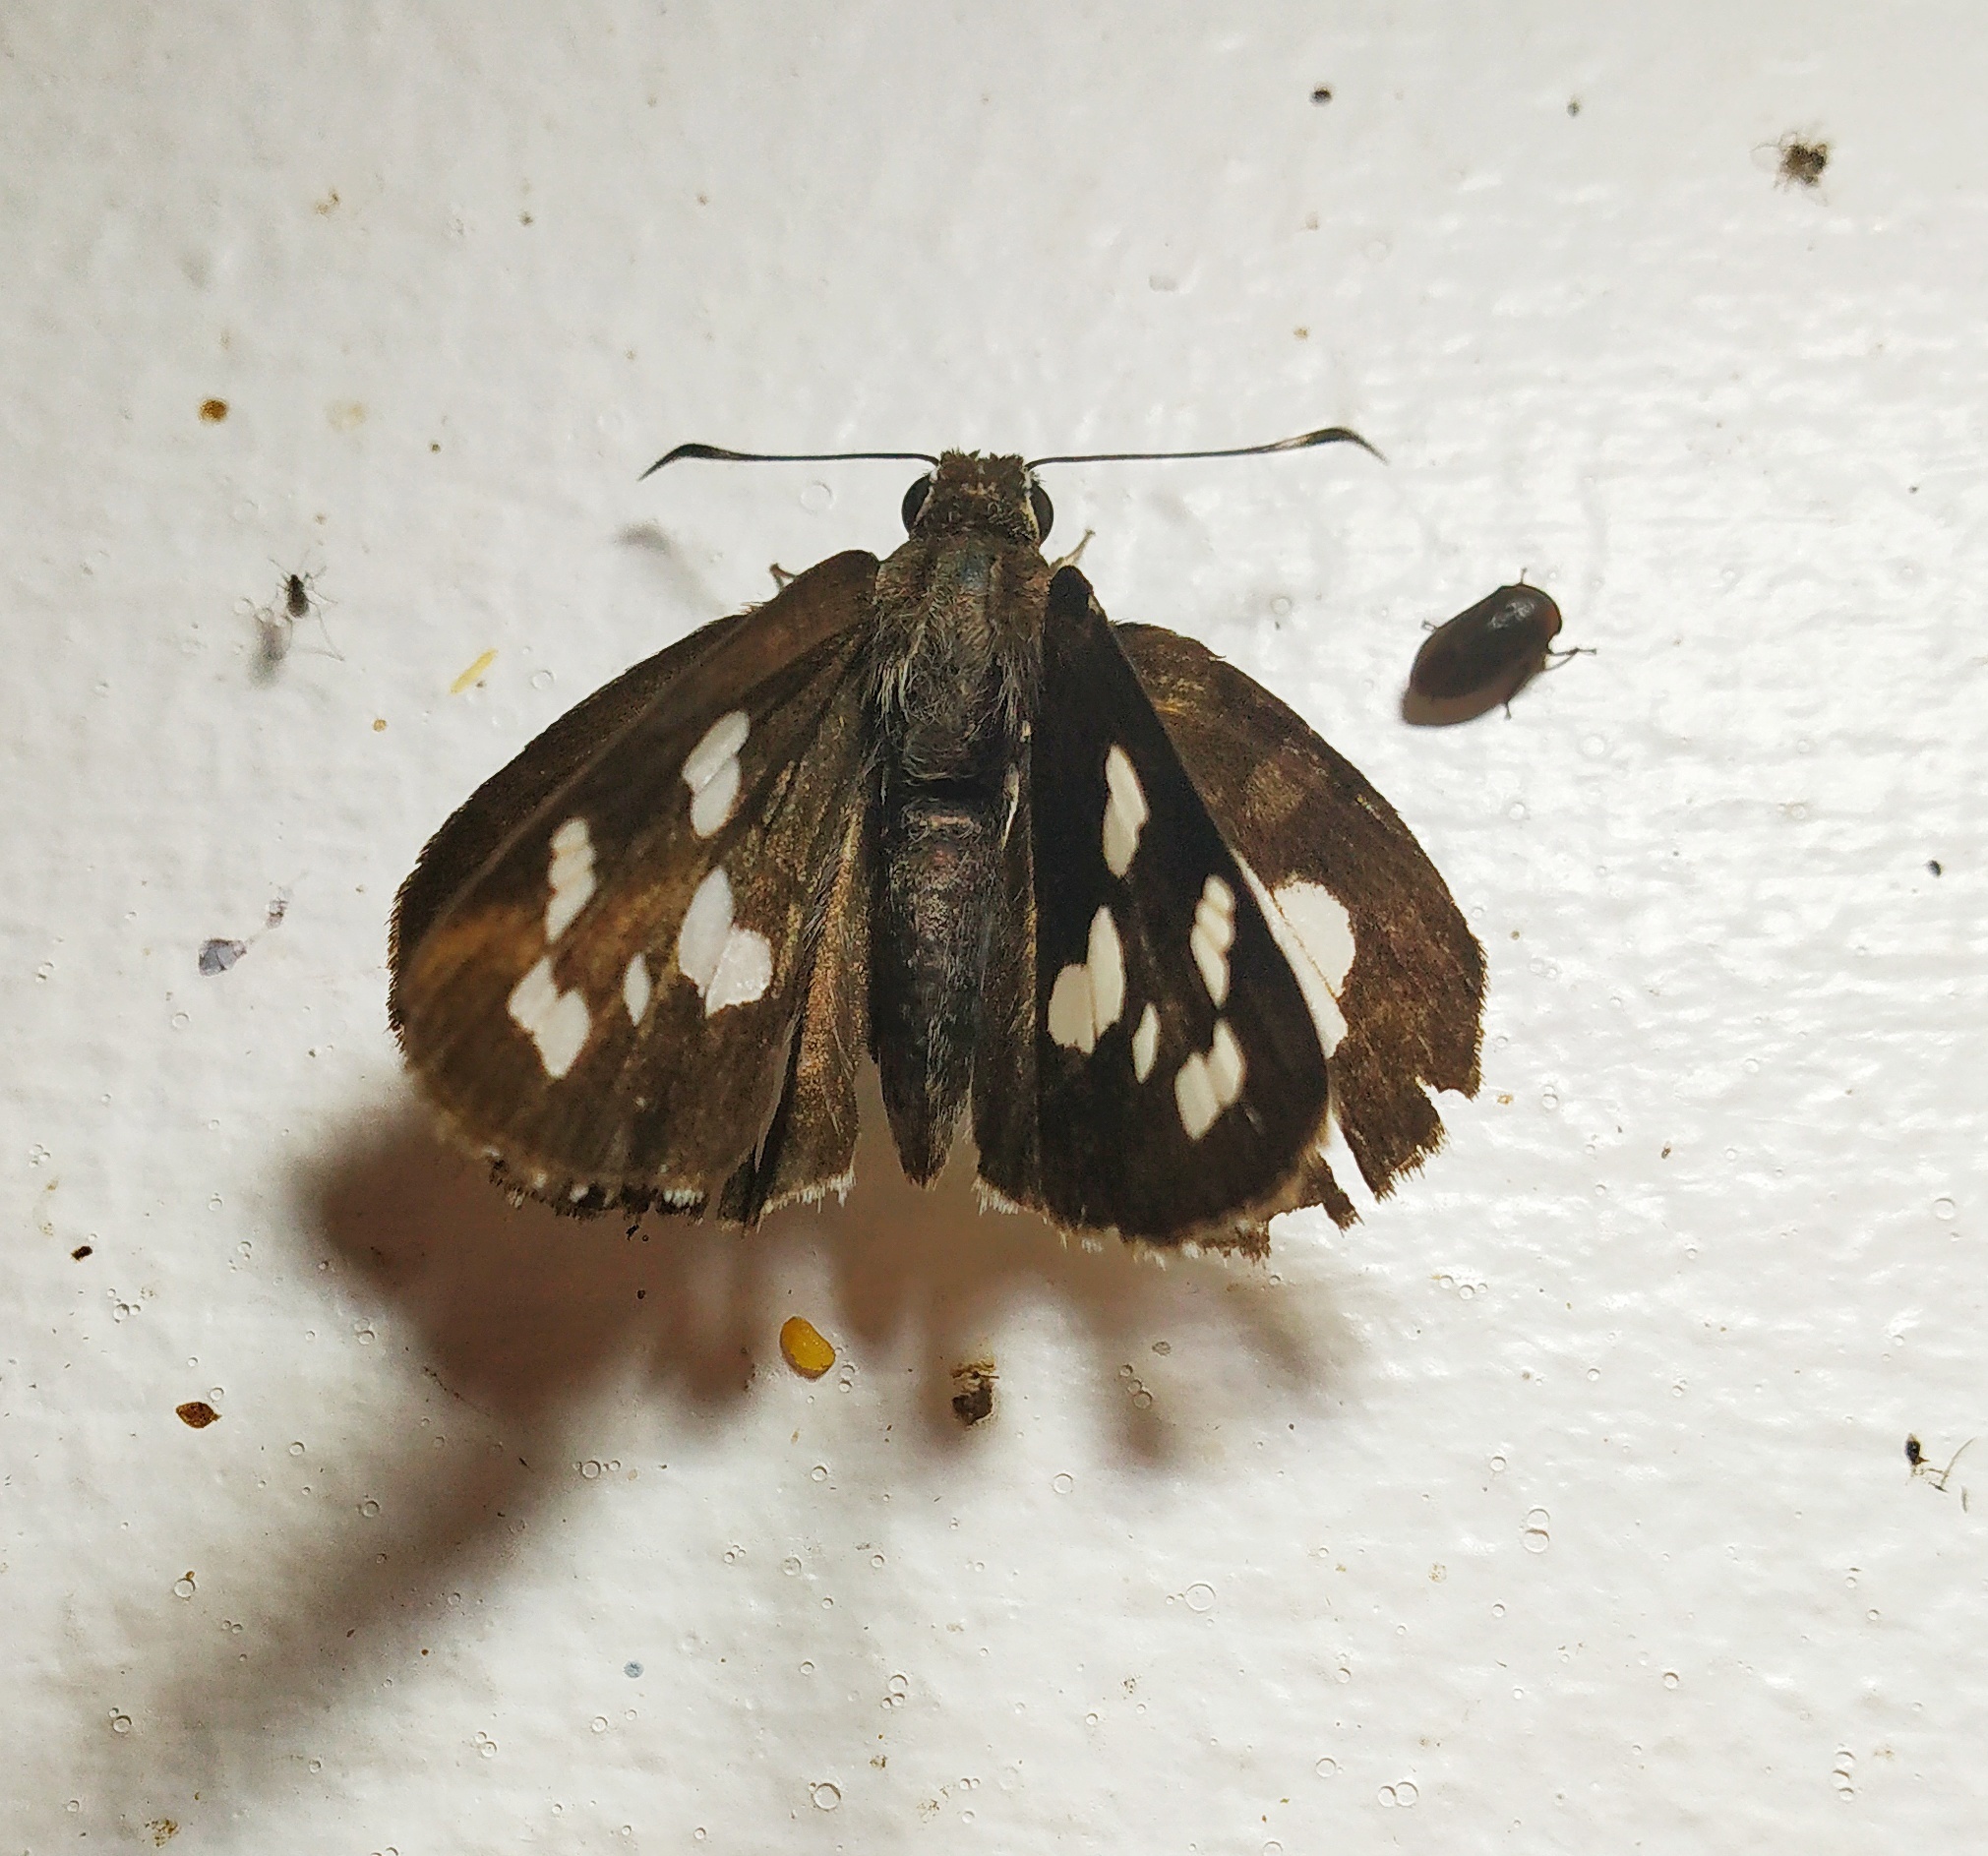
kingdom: Animalia
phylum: Arthropoda
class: Insecta
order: Lepidoptera
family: Hesperiidae
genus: Udaspes
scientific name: Udaspes folus
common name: Grass demon
